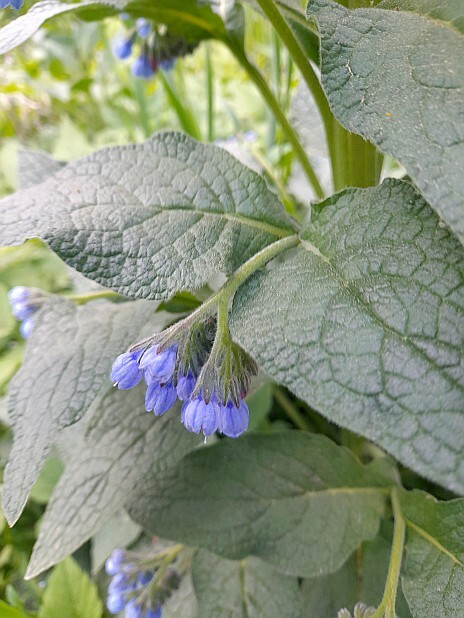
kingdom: Plantae
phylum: Tracheophyta
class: Magnoliopsida
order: Boraginales
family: Boraginaceae
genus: Symphytum
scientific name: Symphytum caucasicum
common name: Caucasian comfrey
